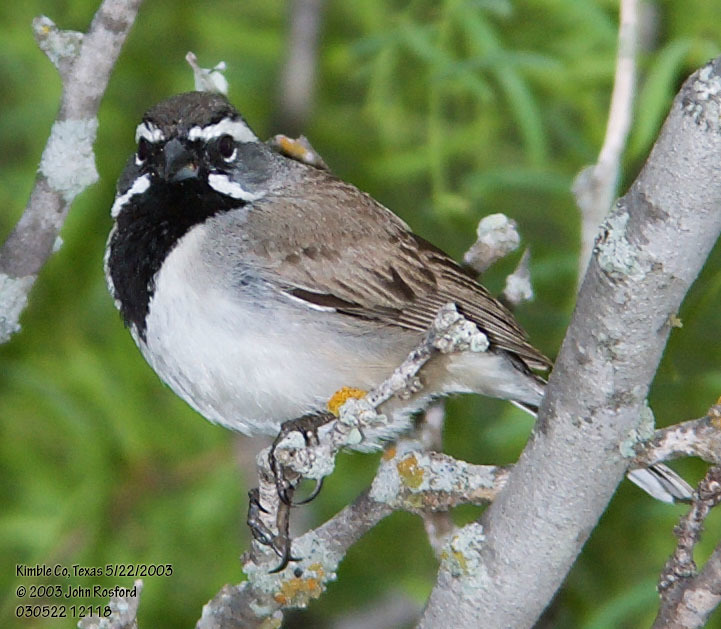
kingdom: Animalia
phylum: Chordata
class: Aves
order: Passeriformes
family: Passerellidae
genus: Amphispiza
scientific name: Amphispiza bilineata
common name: Black-throated sparrow
